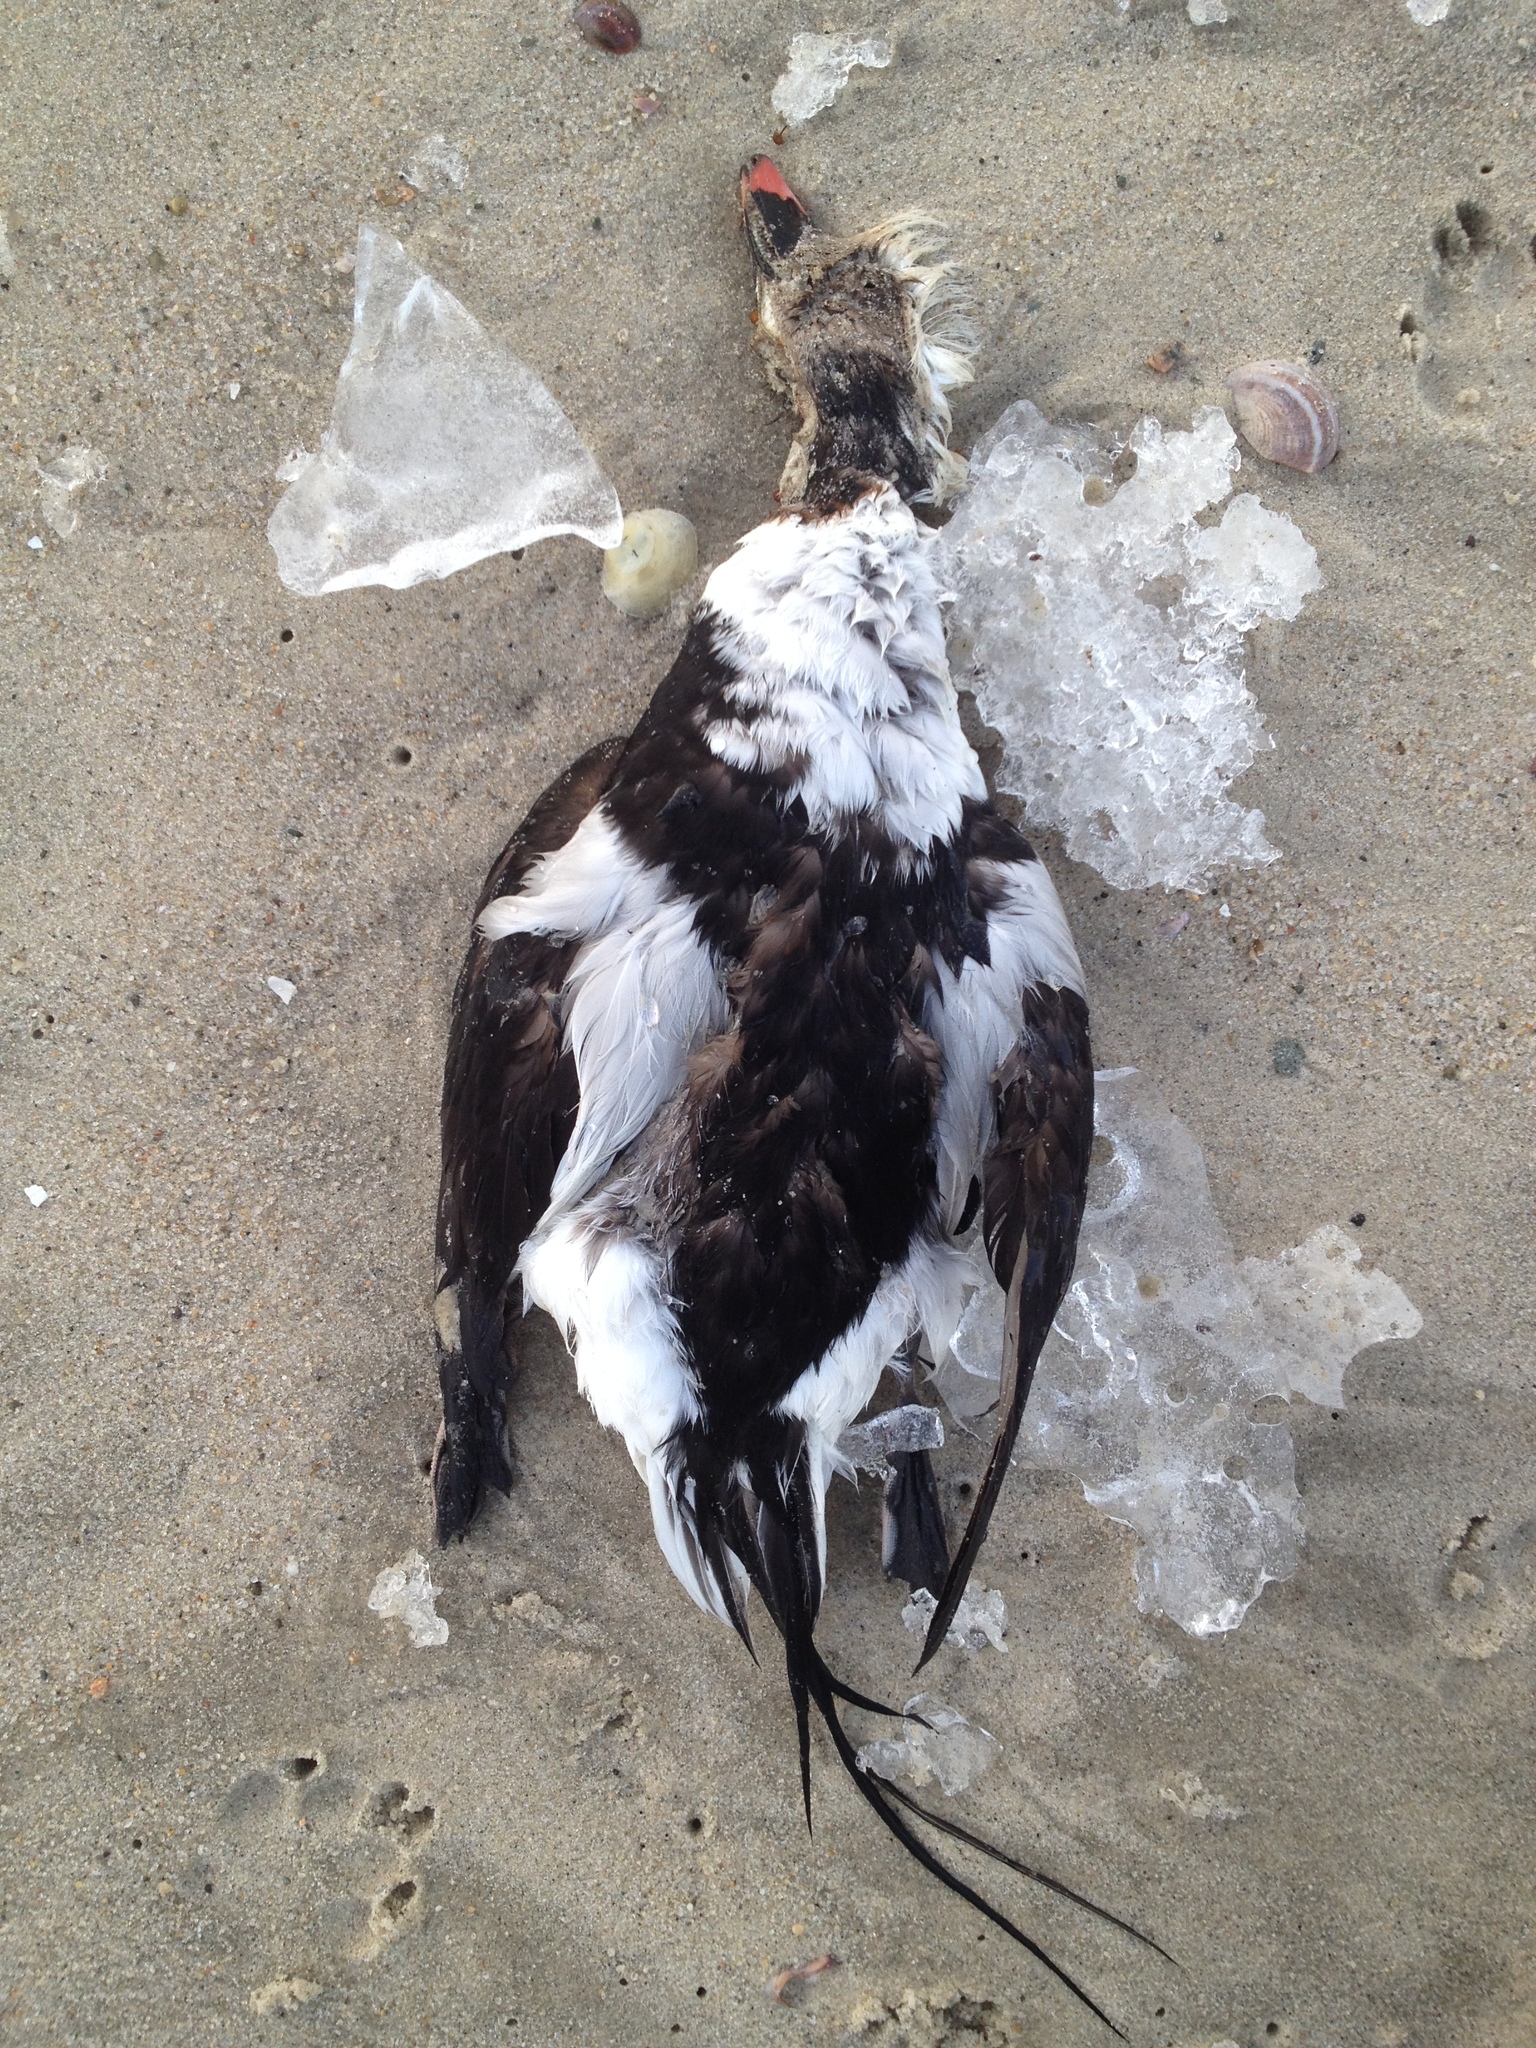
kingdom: Animalia
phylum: Chordata
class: Aves
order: Anseriformes
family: Anatidae
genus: Clangula
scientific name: Clangula hyemalis
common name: Long-tailed duck
